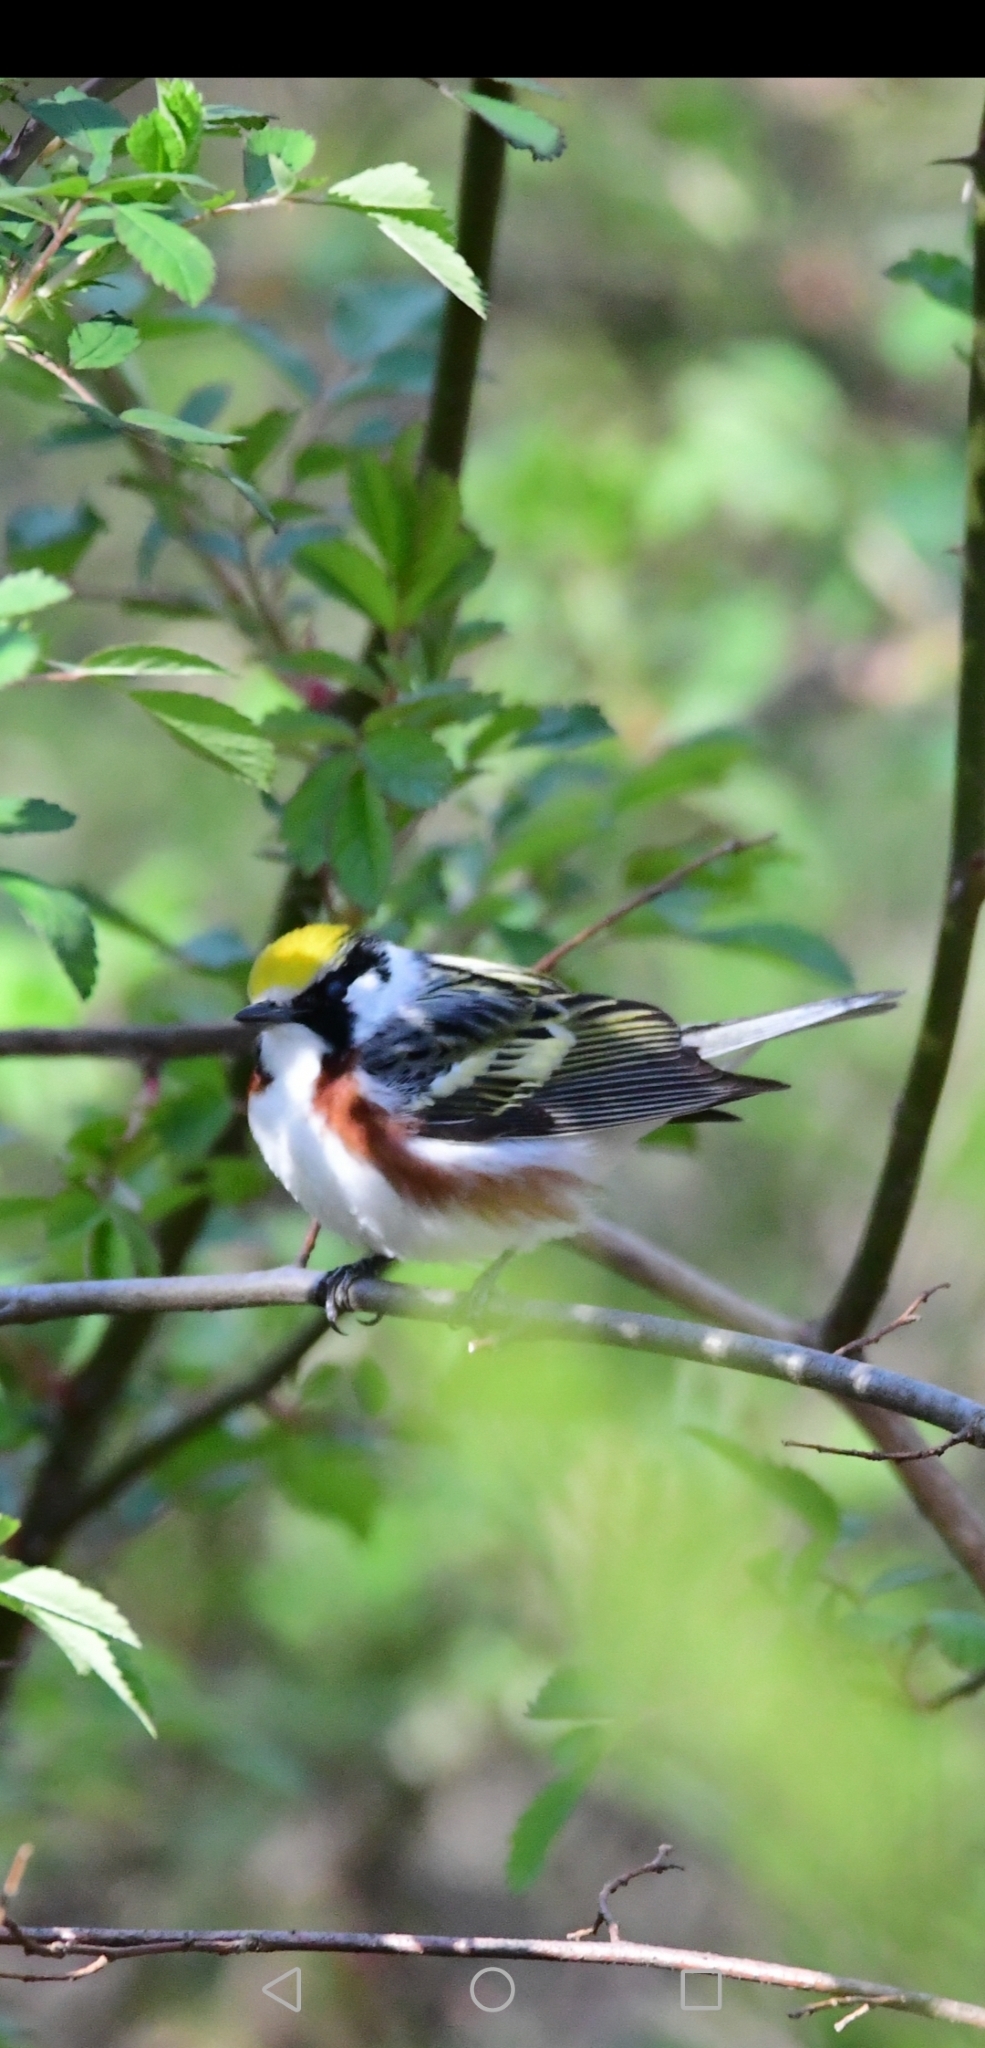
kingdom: Animalia
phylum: Chordata
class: Aves
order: Passeriformes
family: Parulidae
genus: Setophaga
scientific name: Setophaga pensylvanica
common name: Chestnut-sided warbler
